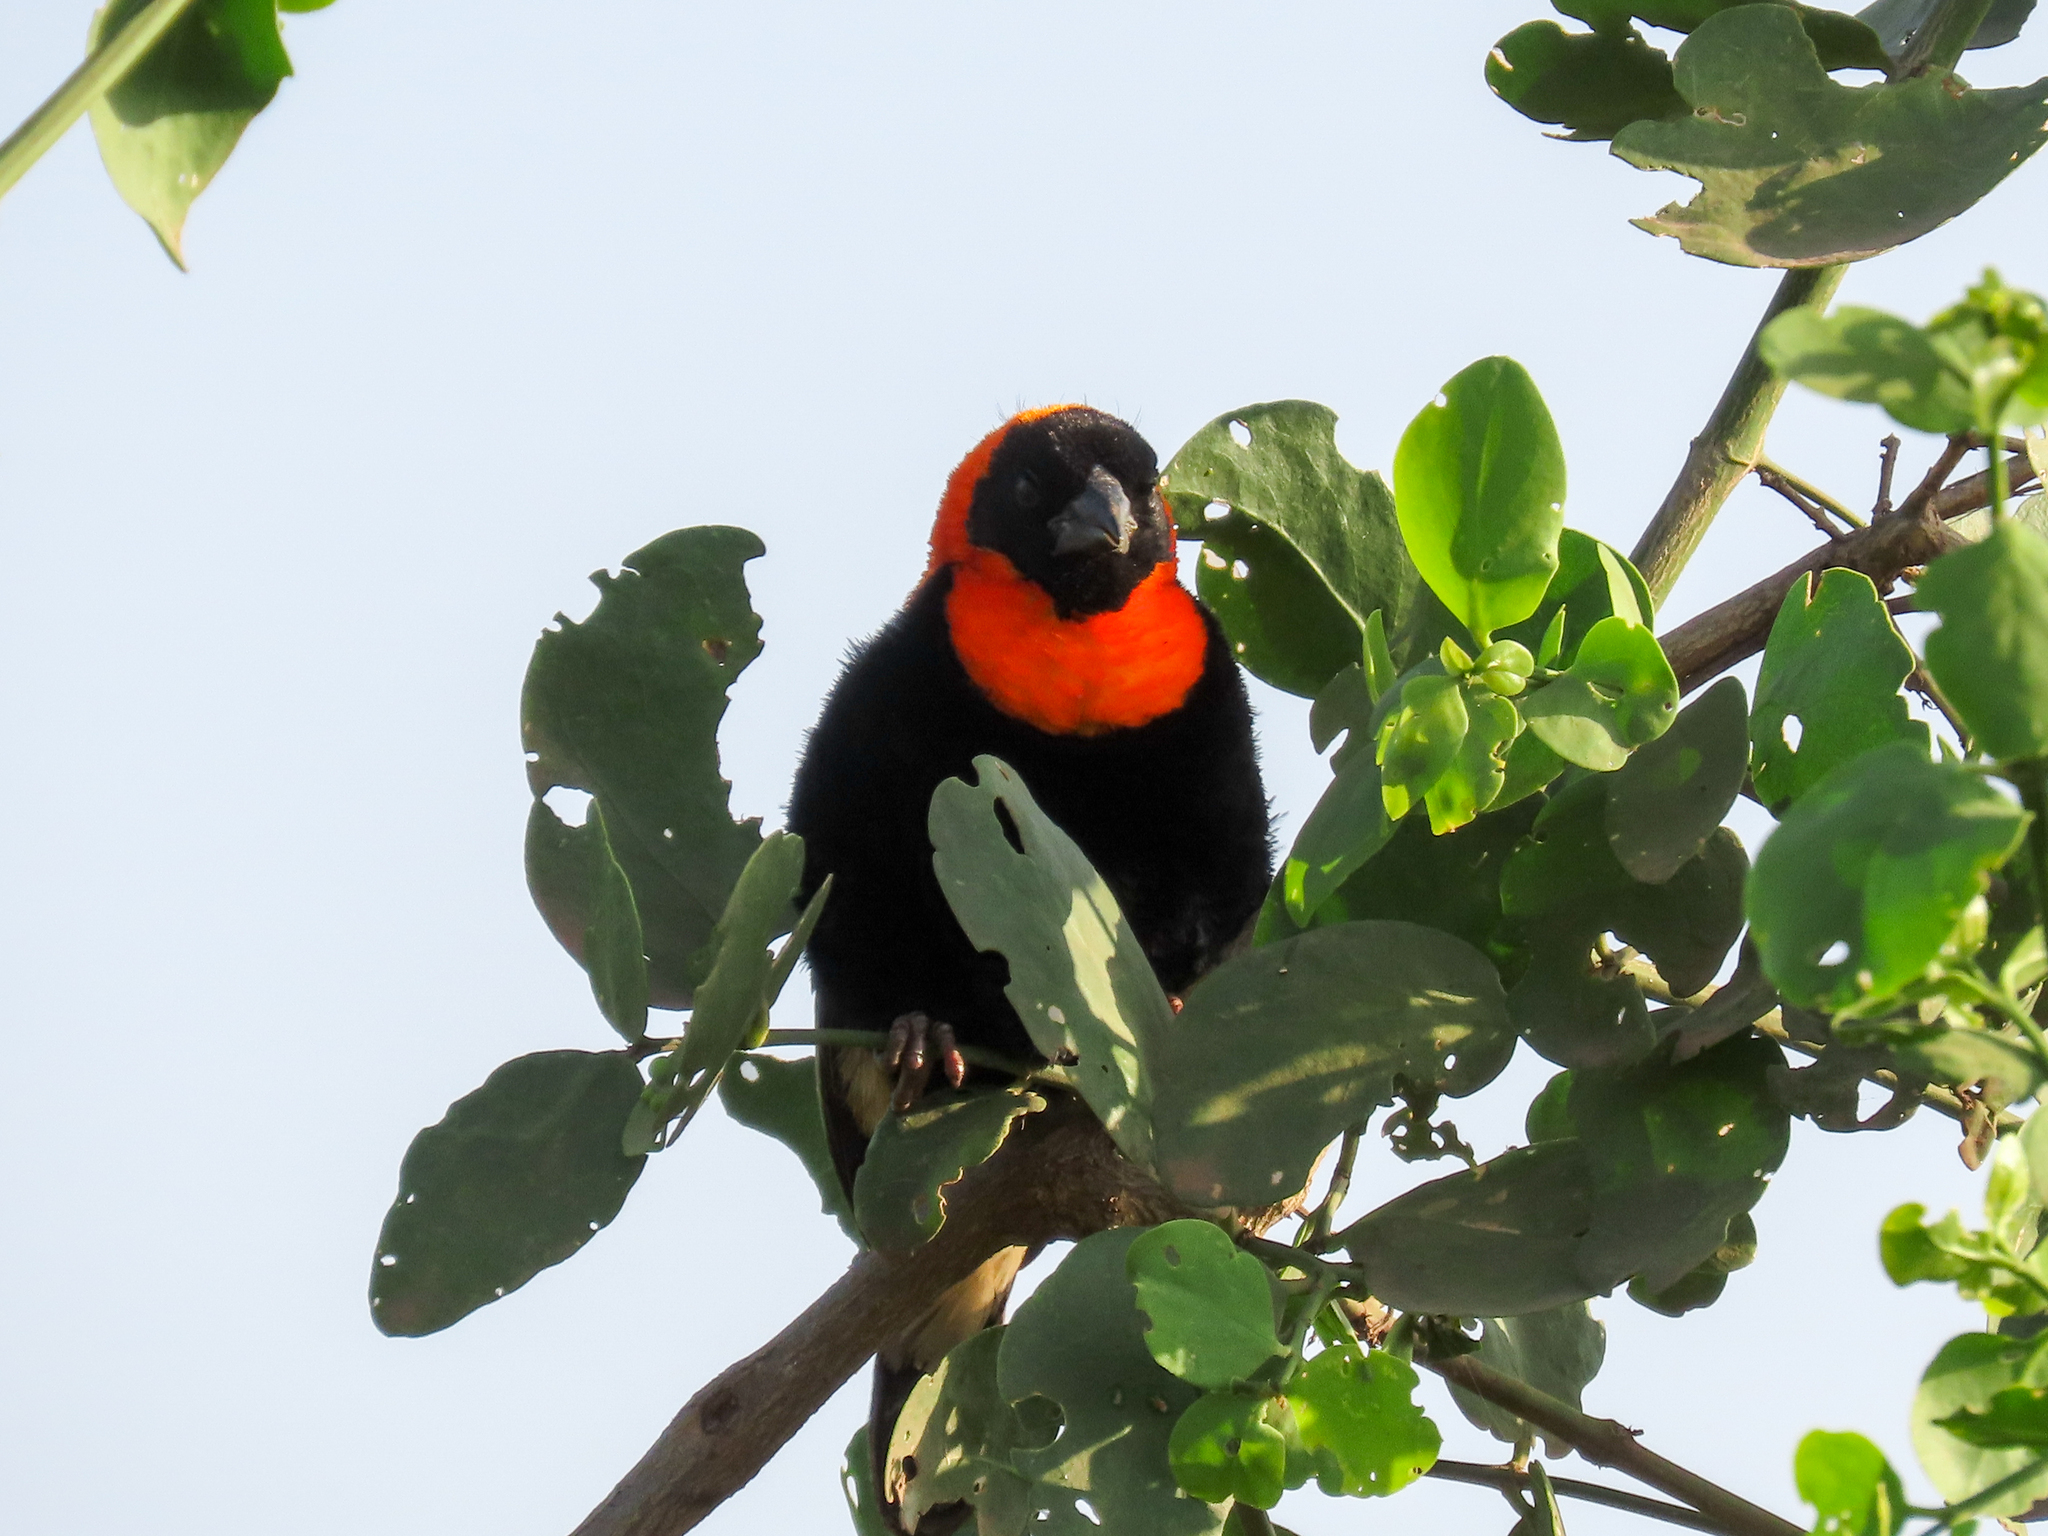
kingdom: Animalia
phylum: Chordata
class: Aves
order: Passeriformes
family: Ploceidae
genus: Euplectes
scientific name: Euplectes gierowii
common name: Black bishop
